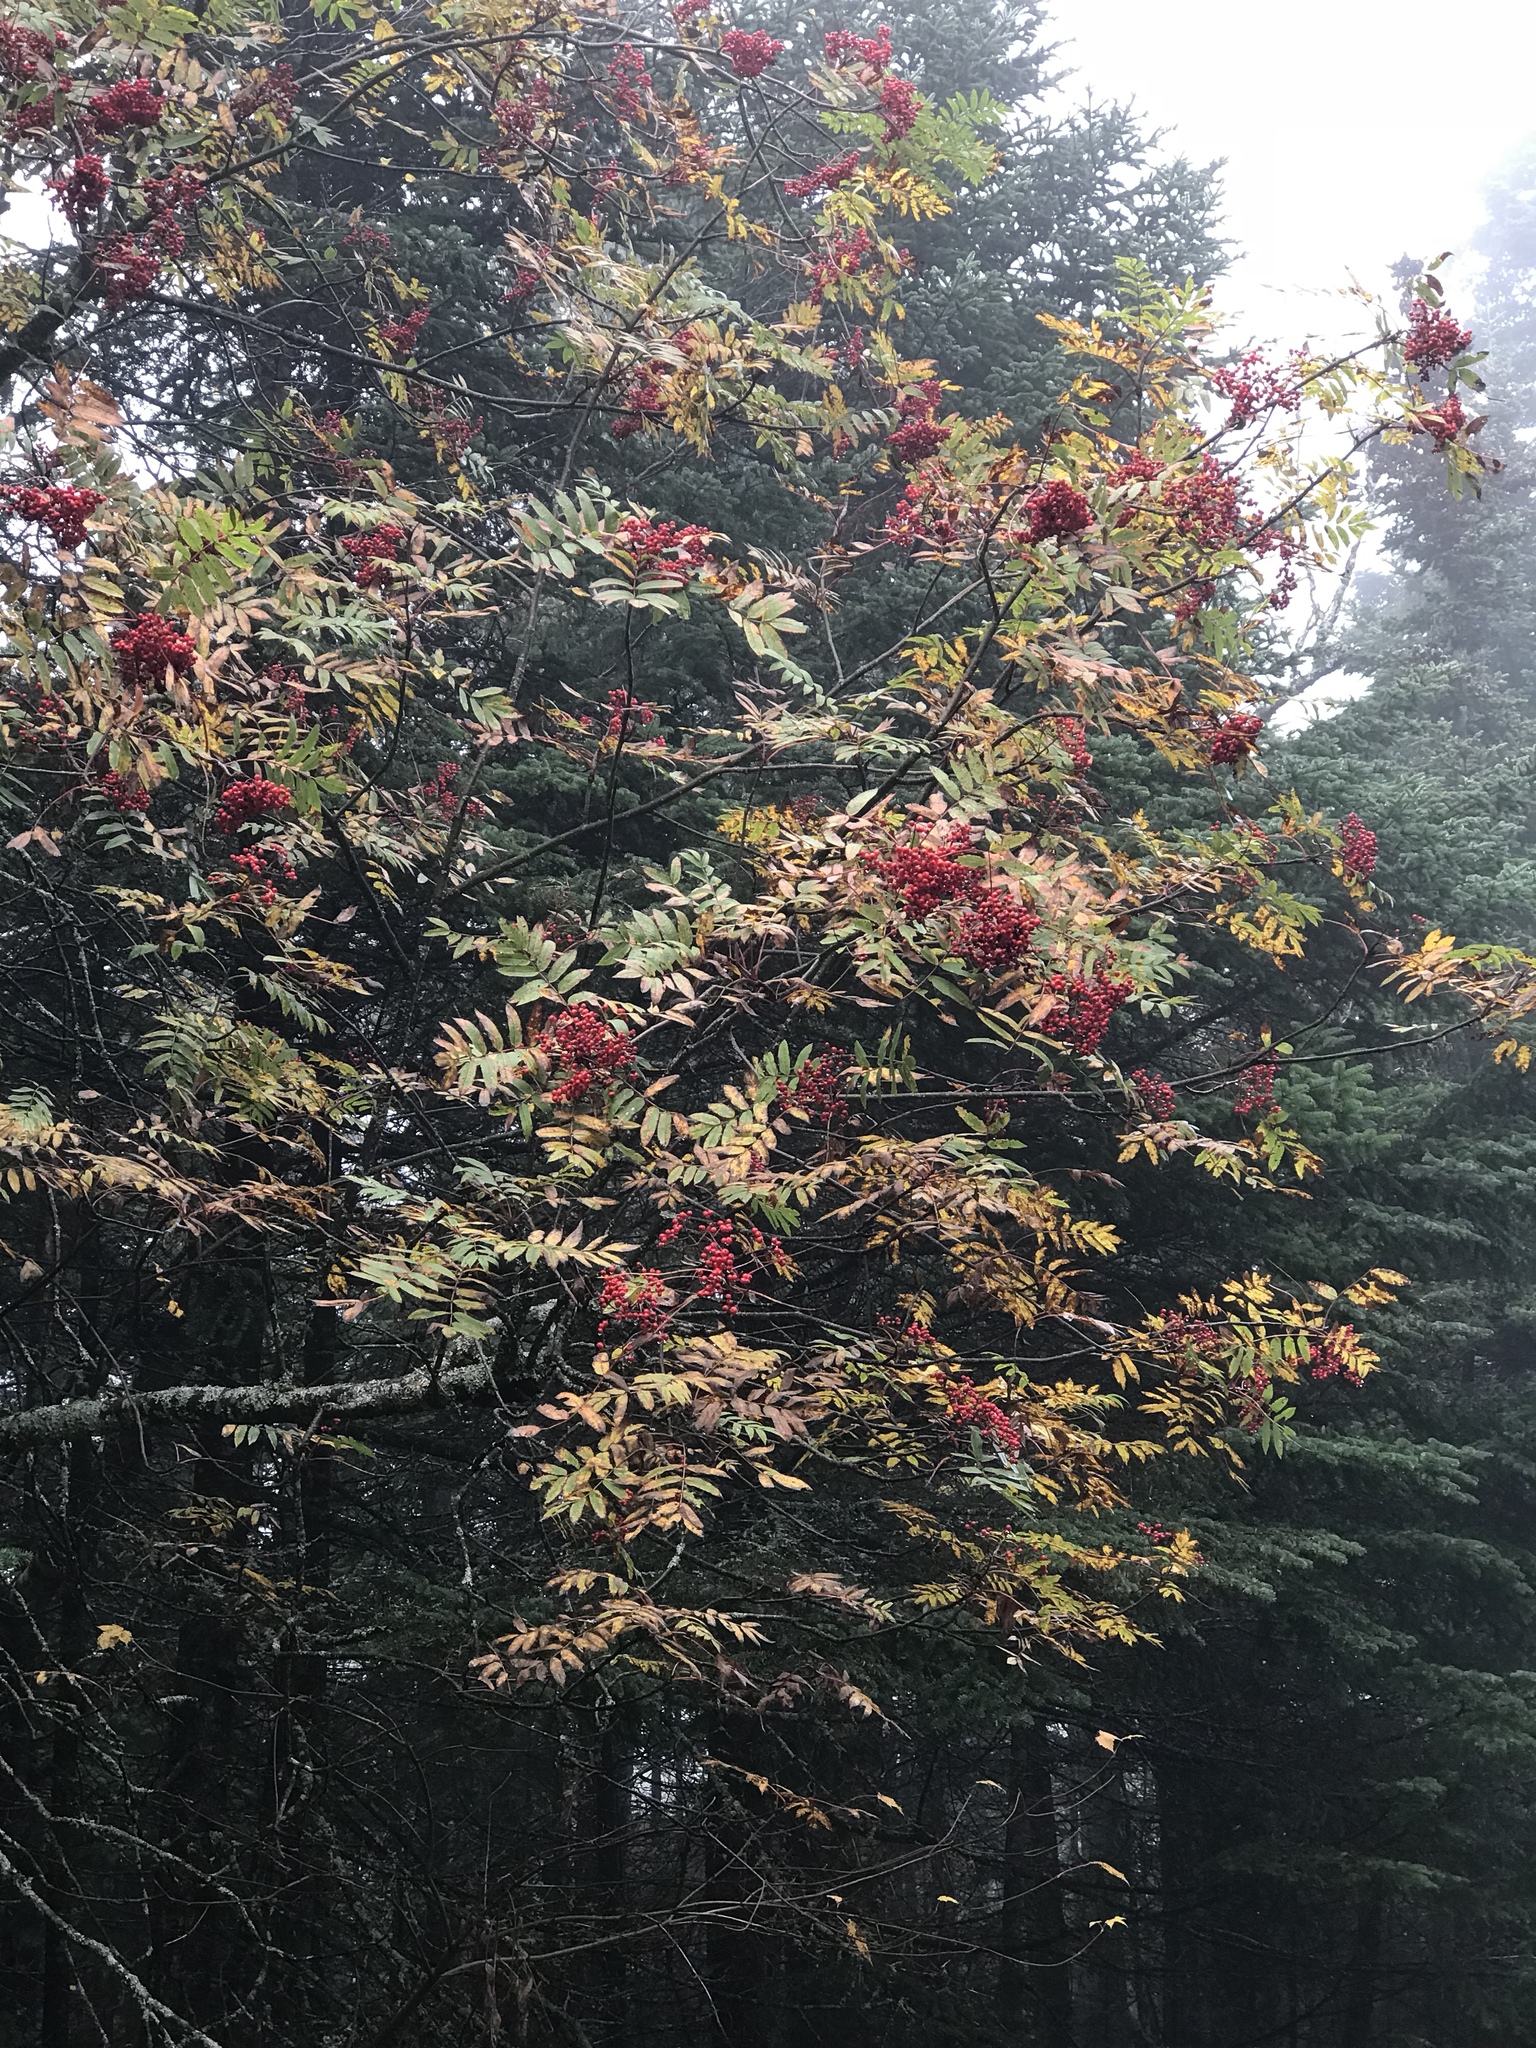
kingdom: Plantae
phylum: Tracheophyta
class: Magnoliopsida
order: Rosales
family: Rosaceae
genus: Sorbus
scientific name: Sorbus americana
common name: American mountain-ash
